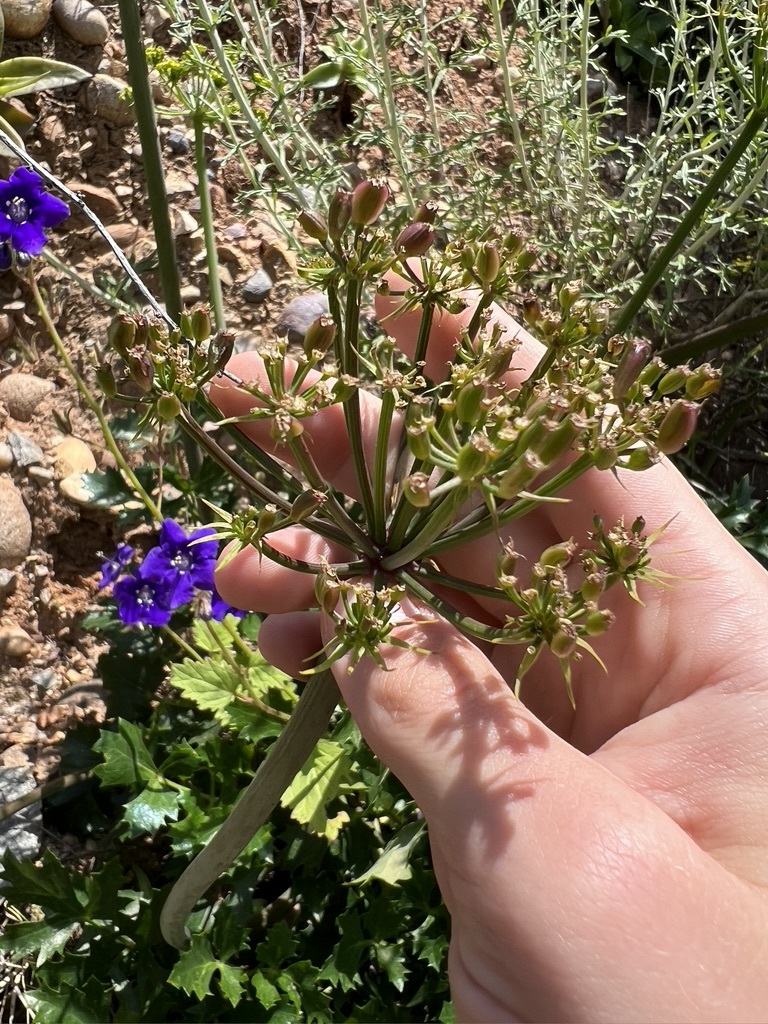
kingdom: Plantae
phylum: Tracheophyta
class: Magnoliopsida
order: Apiales
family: Apiaceae
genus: Lomatium
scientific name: Lomatium lucidum
